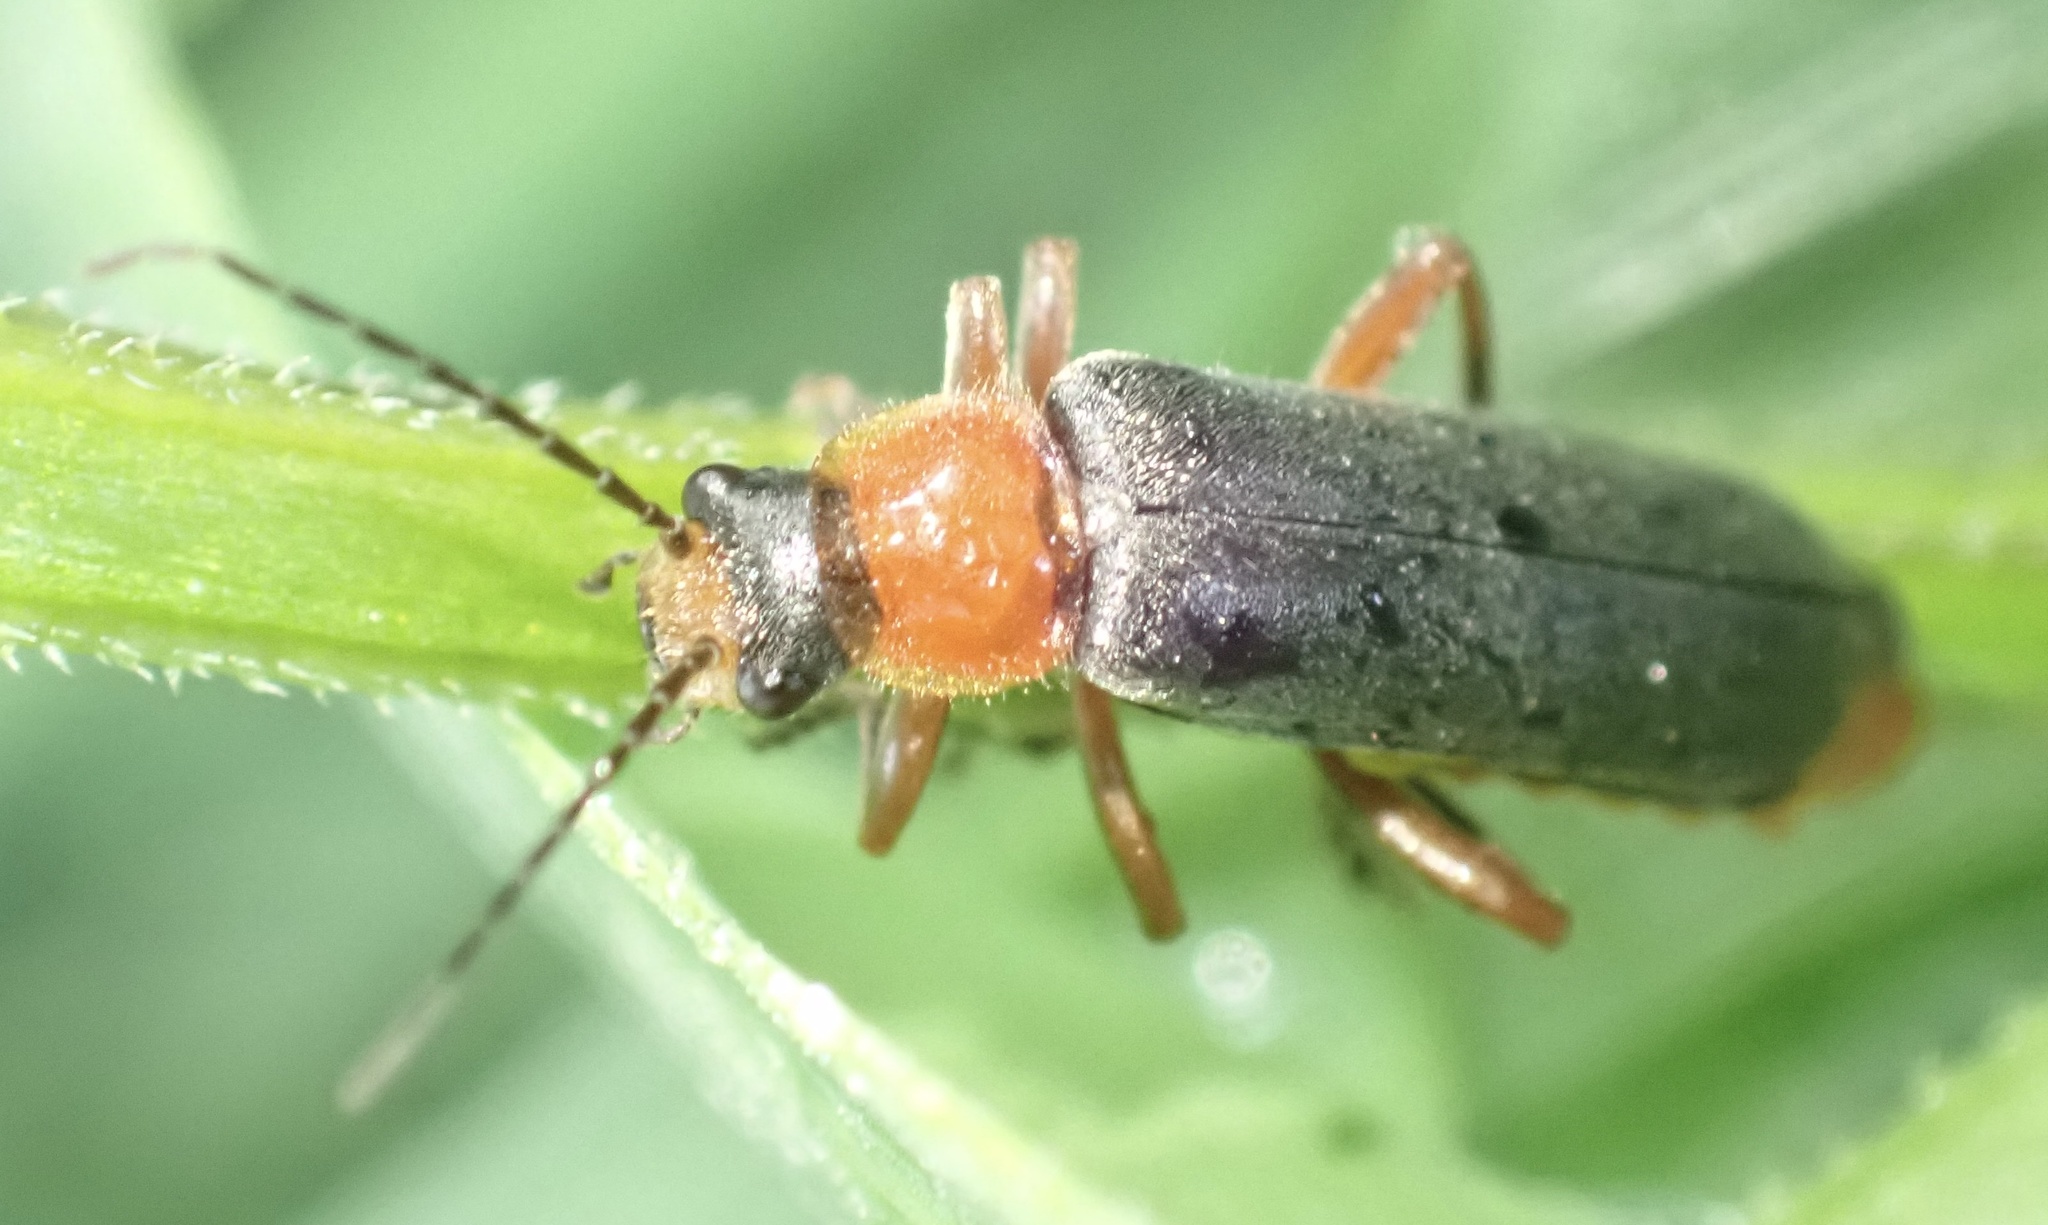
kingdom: Animalia
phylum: Arthropoda
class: Insecta
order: Coleoptera
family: Cantharidae
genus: Cantharis
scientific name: Cantharis pellucida
